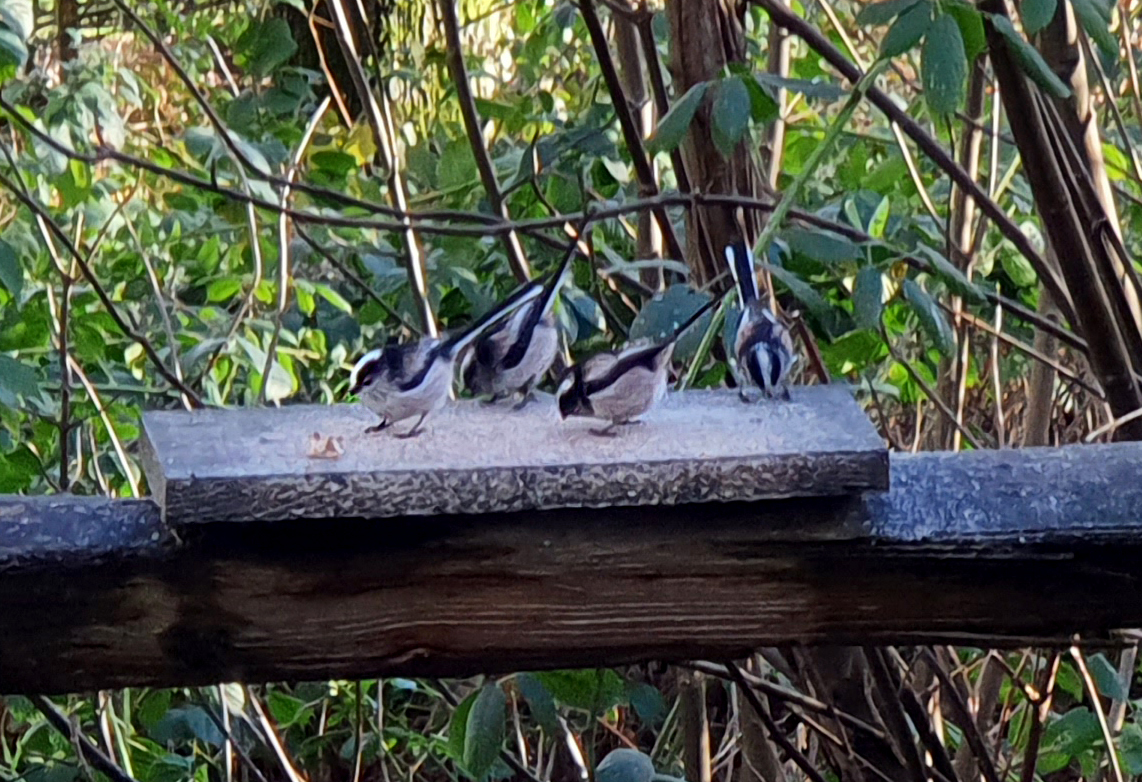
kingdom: Animalia
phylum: Chordata
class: Aves
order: Passeriformes
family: Aegithalidae
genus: Aegithalos
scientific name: Aegithalos caudatus
